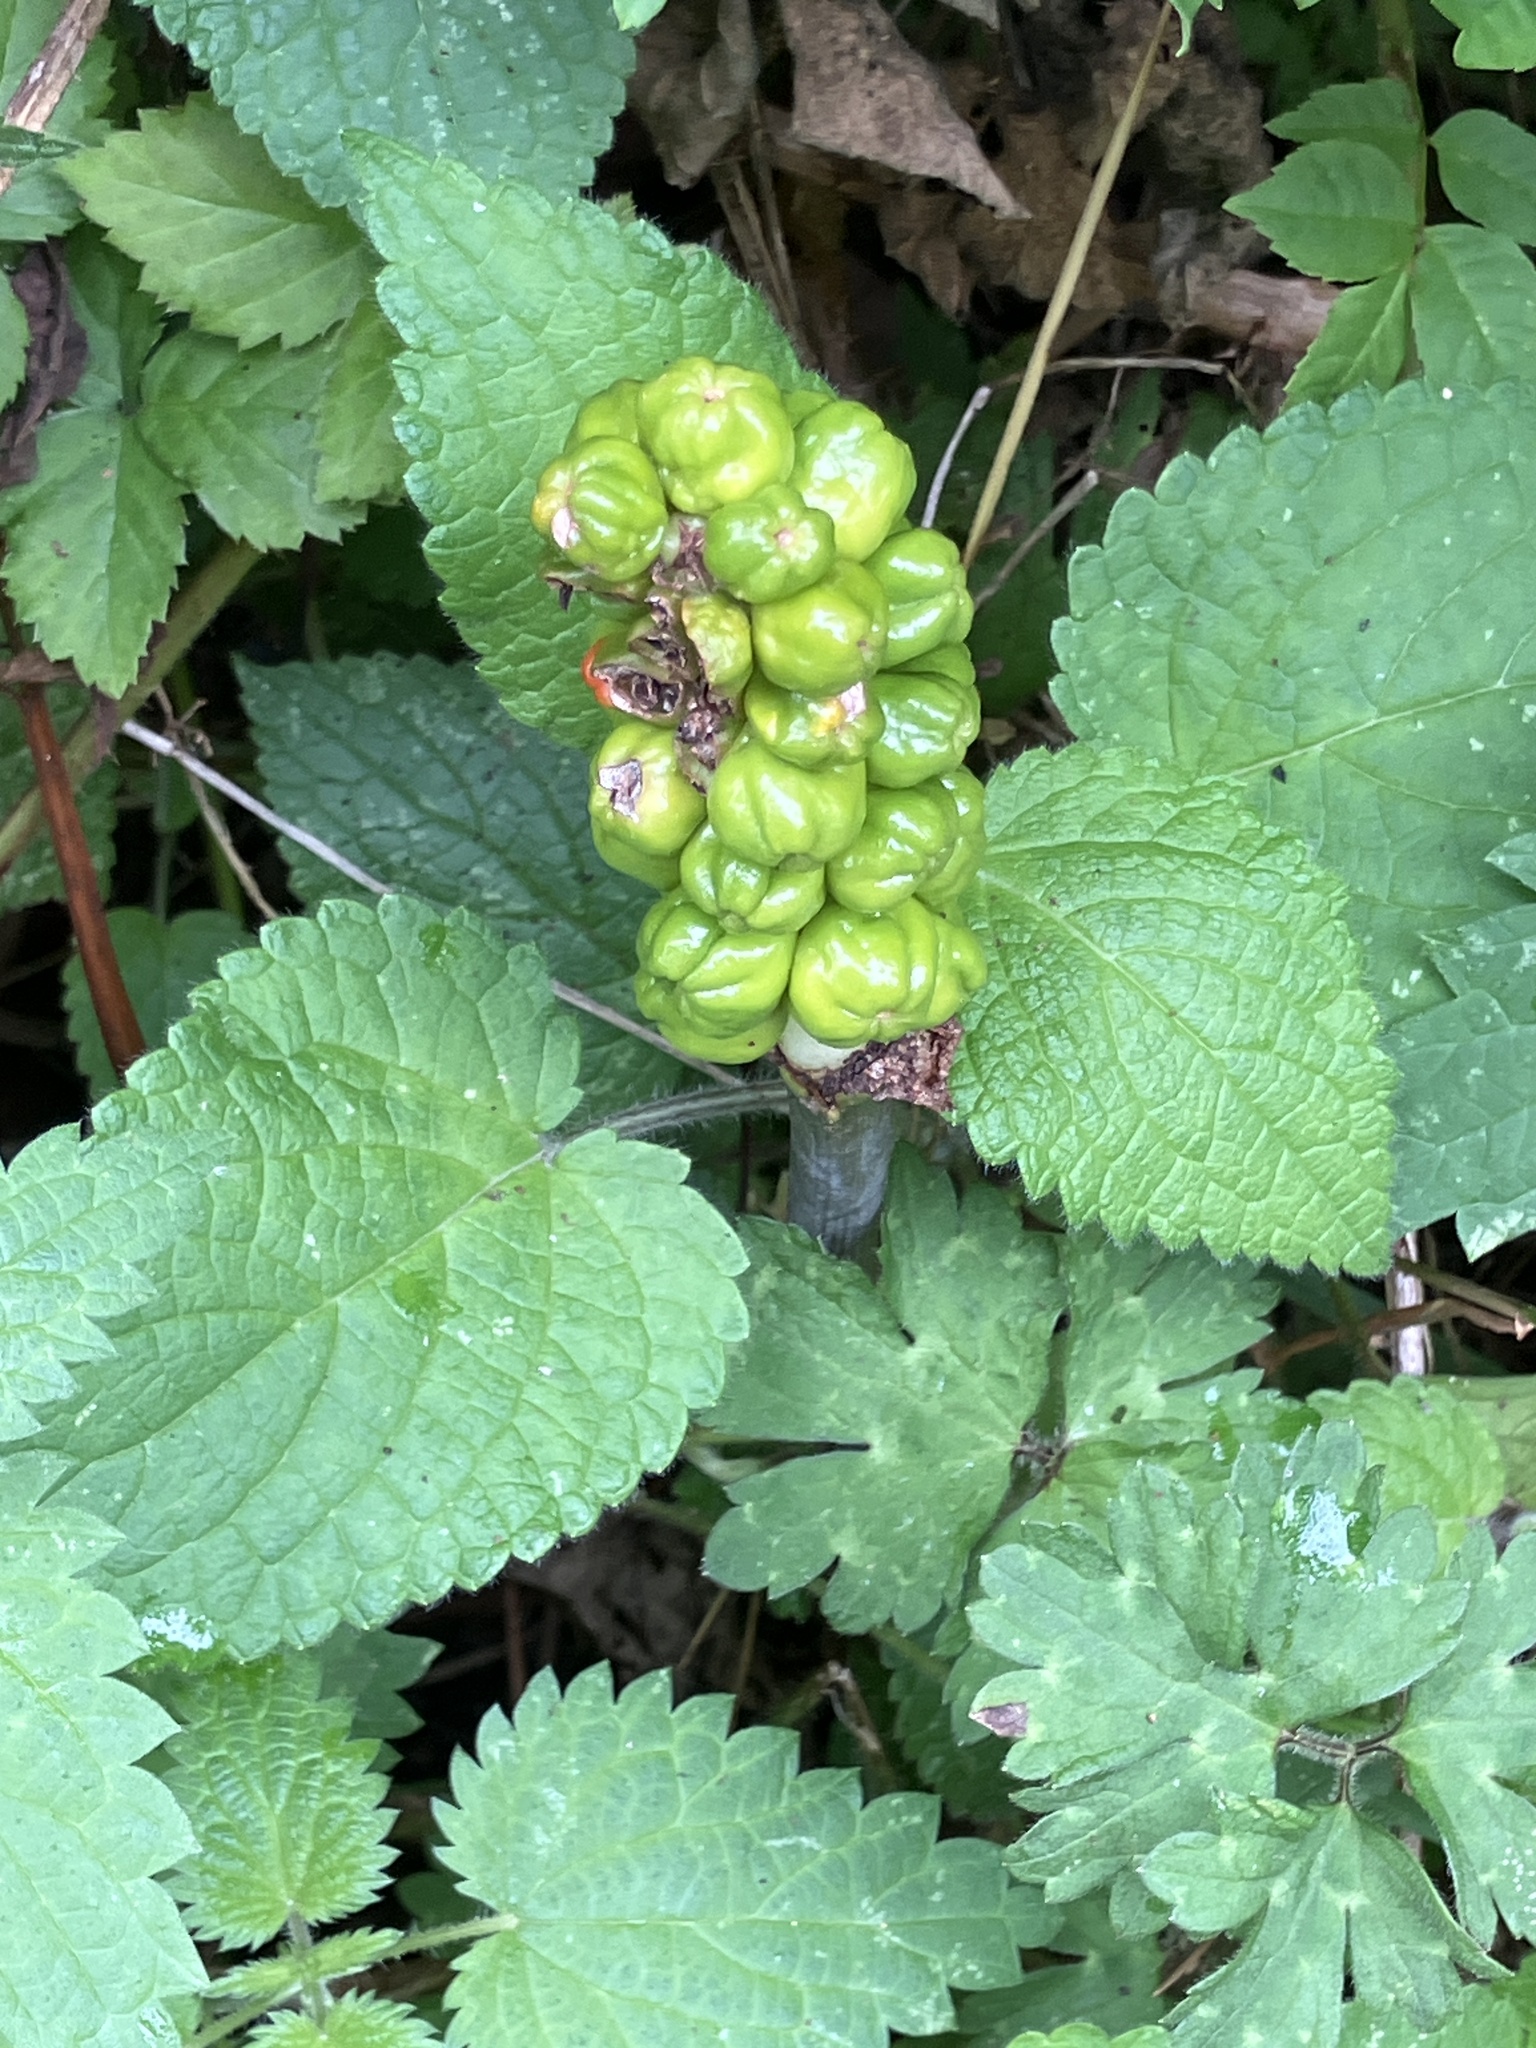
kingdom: Plantae
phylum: Tracheophyta
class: Liliopsida
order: Alismatales
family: Araceae
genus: Arum
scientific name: Arum maculatum
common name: Lords-and-ladies
